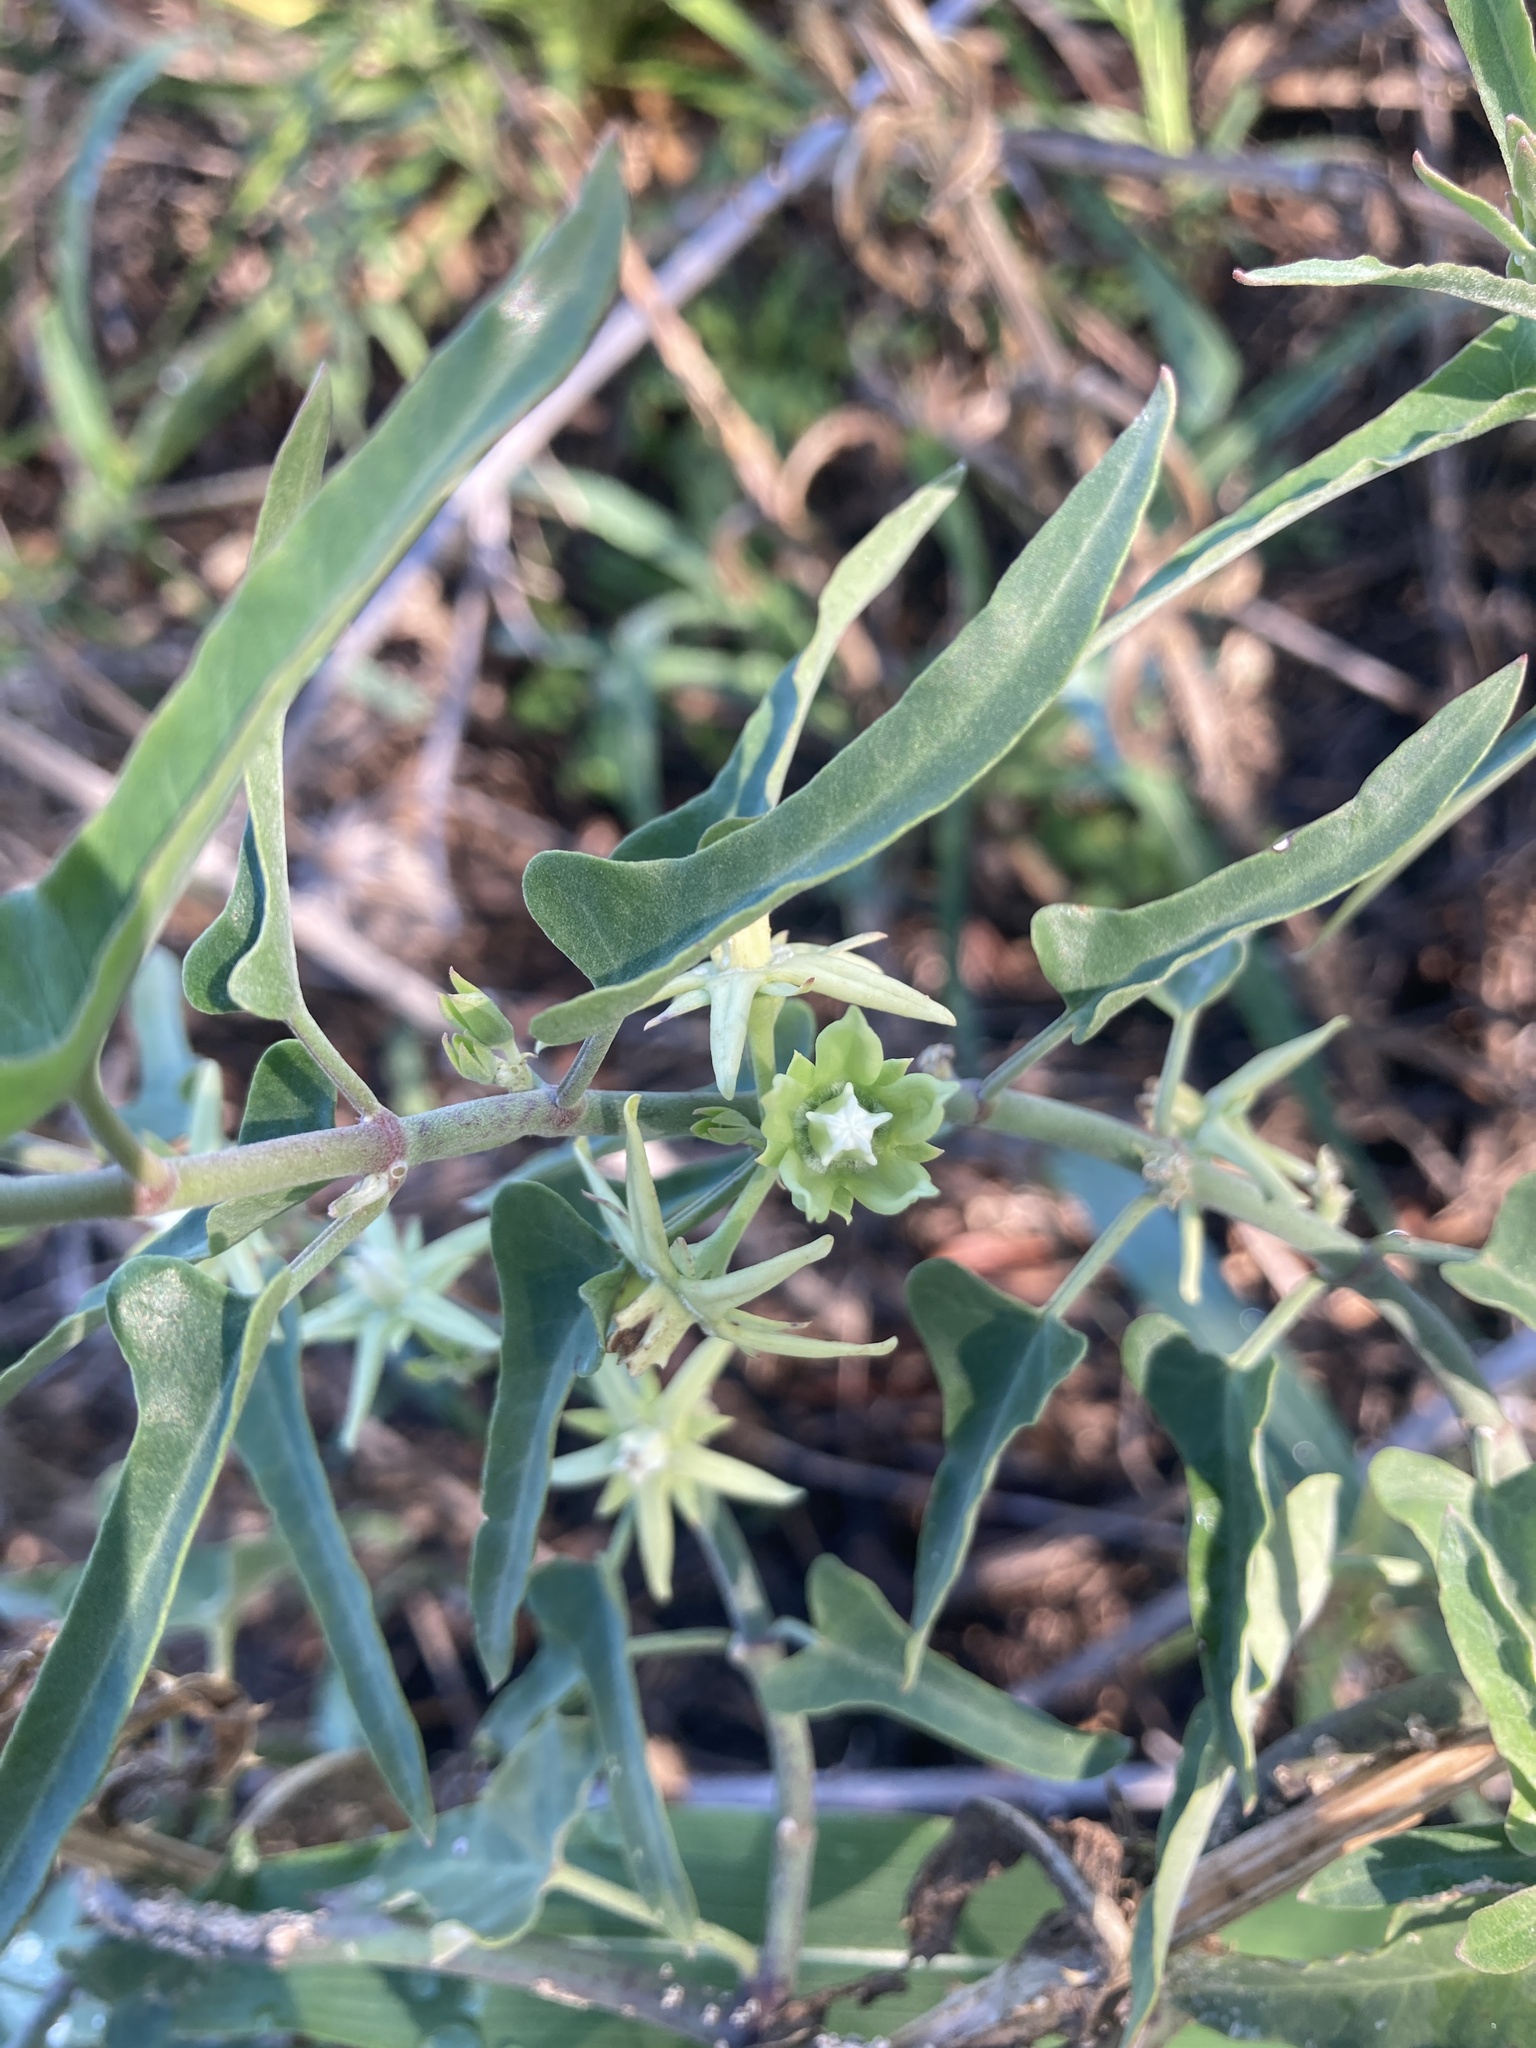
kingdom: Plantae
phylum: Tracheophyta
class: Magnoliopsida
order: Gentianales
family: Apocynaceae
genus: Araujia
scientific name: Araujia odorata
